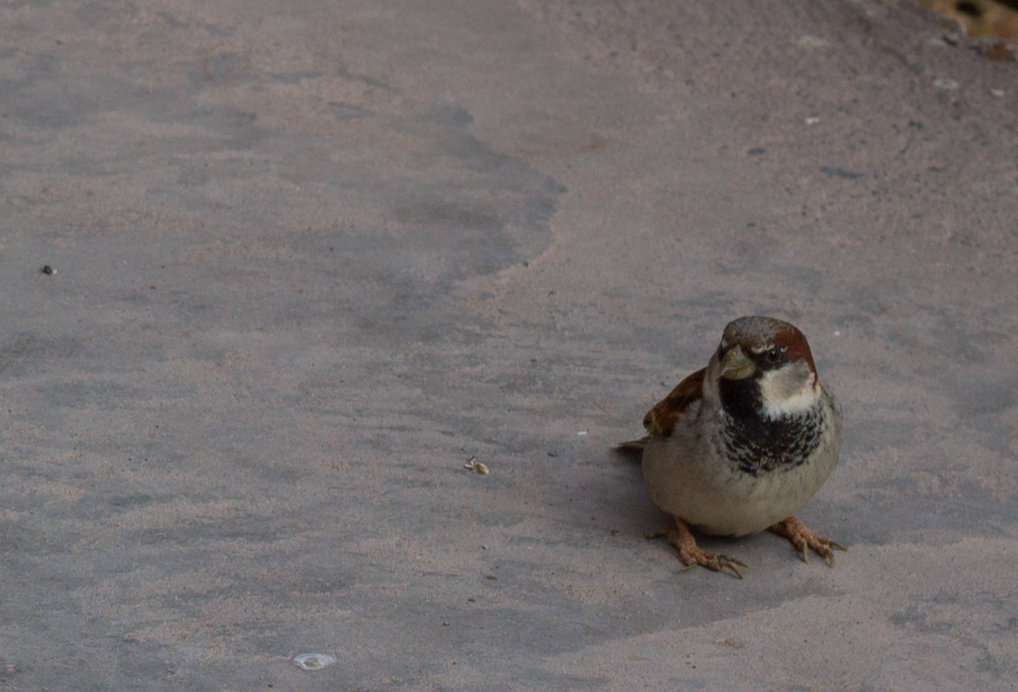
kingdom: Animalia
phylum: Chordata
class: Aves
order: Passeriformes
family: Passeridae
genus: Passer
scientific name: Passer domesticus
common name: House sparrow
